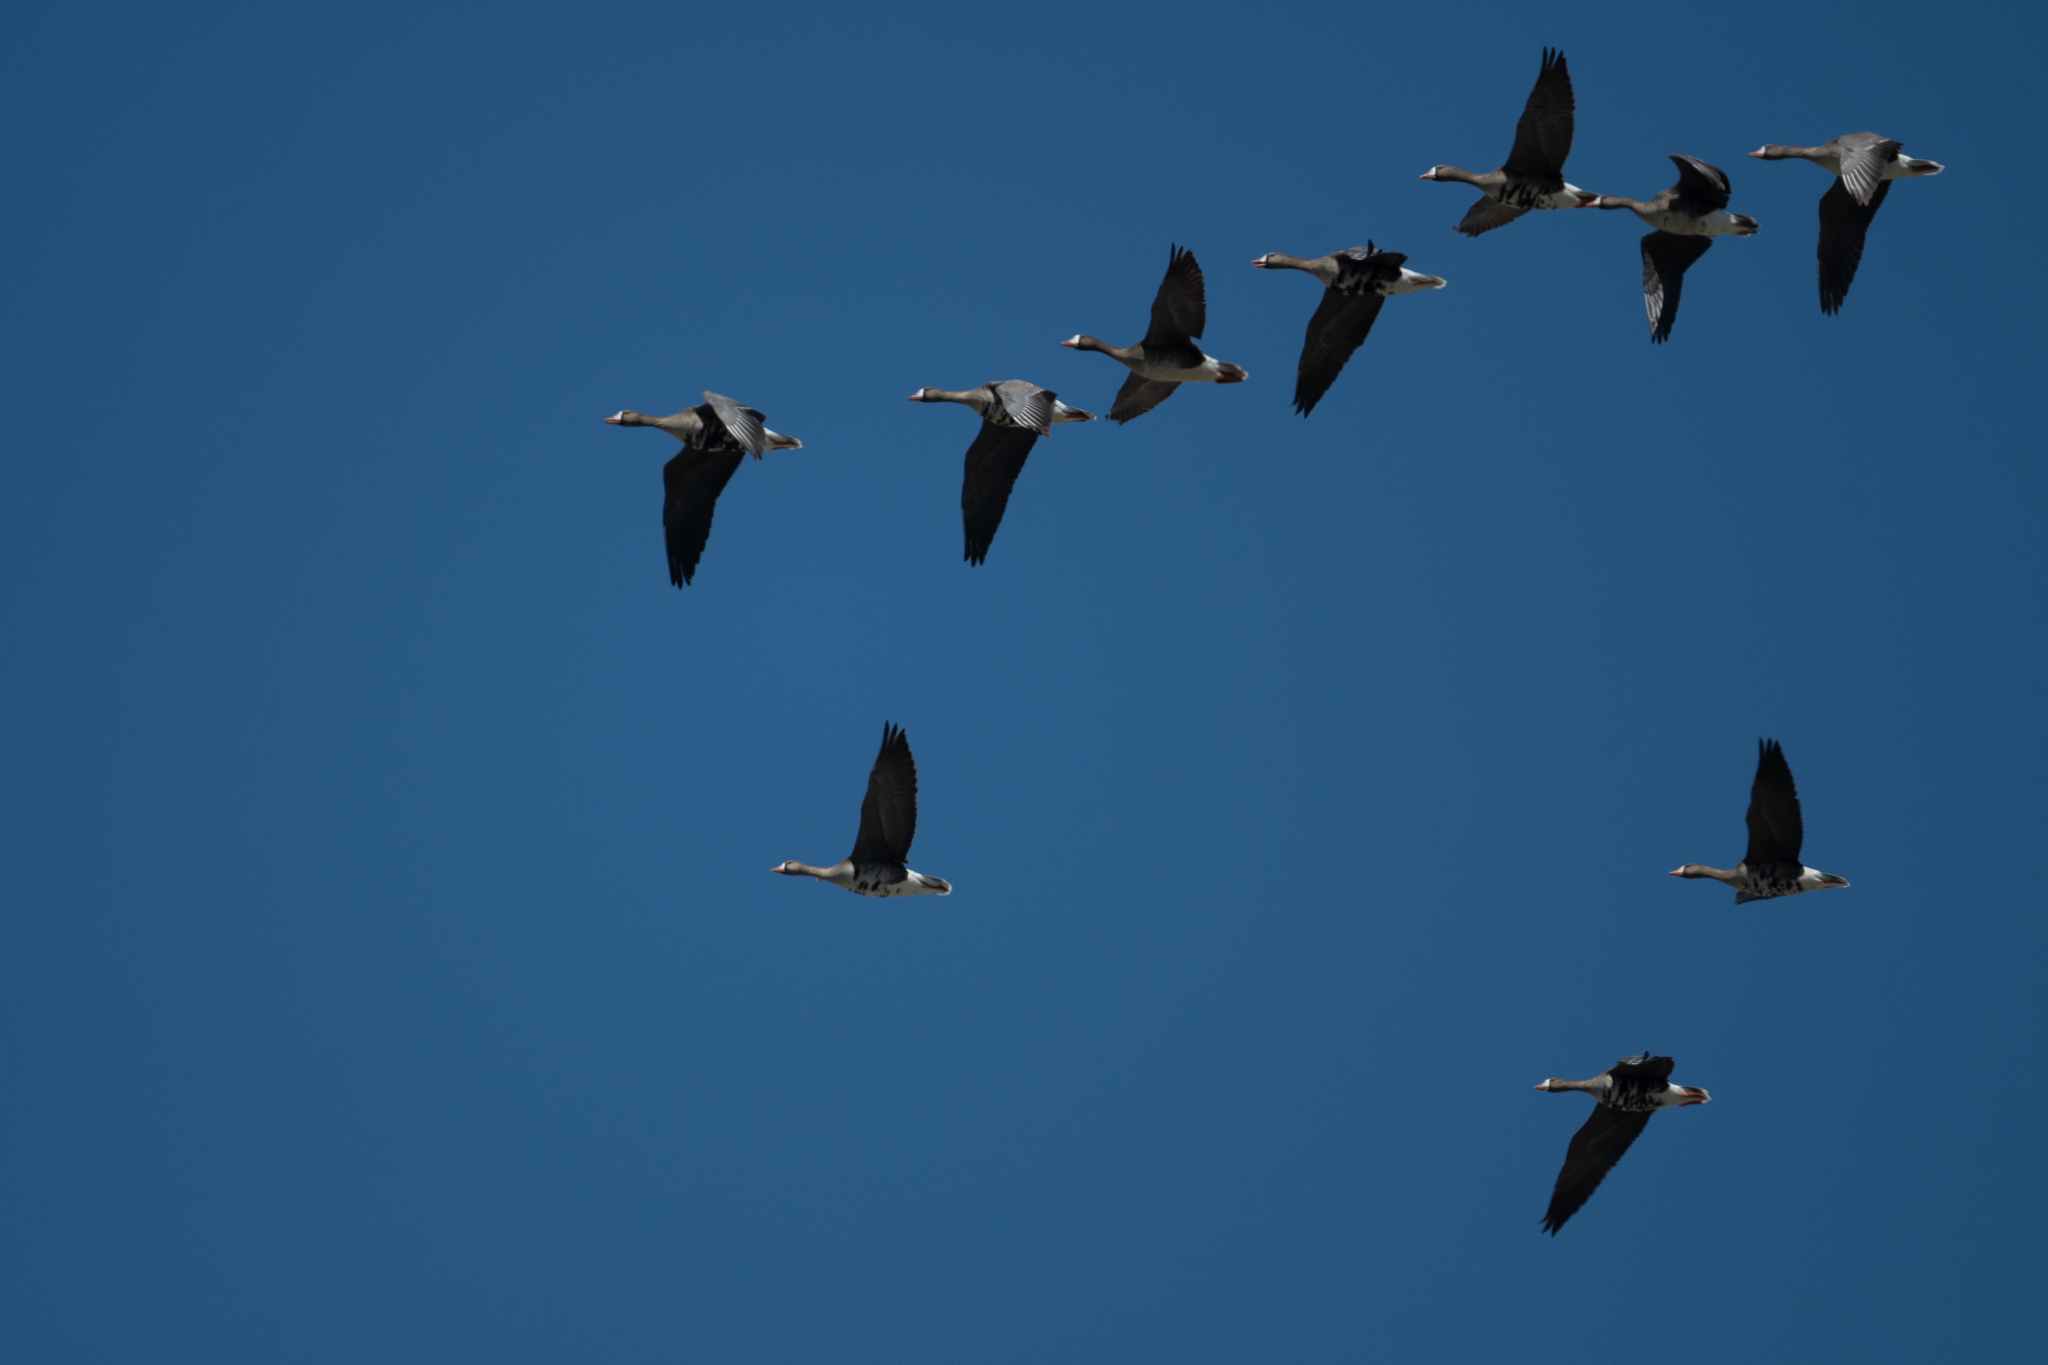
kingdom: Animalia
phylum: Chordata
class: Aves
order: Anseriformes
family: Anatidae
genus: Anser
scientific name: Anser albifrons
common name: Greater white-fronted goose
